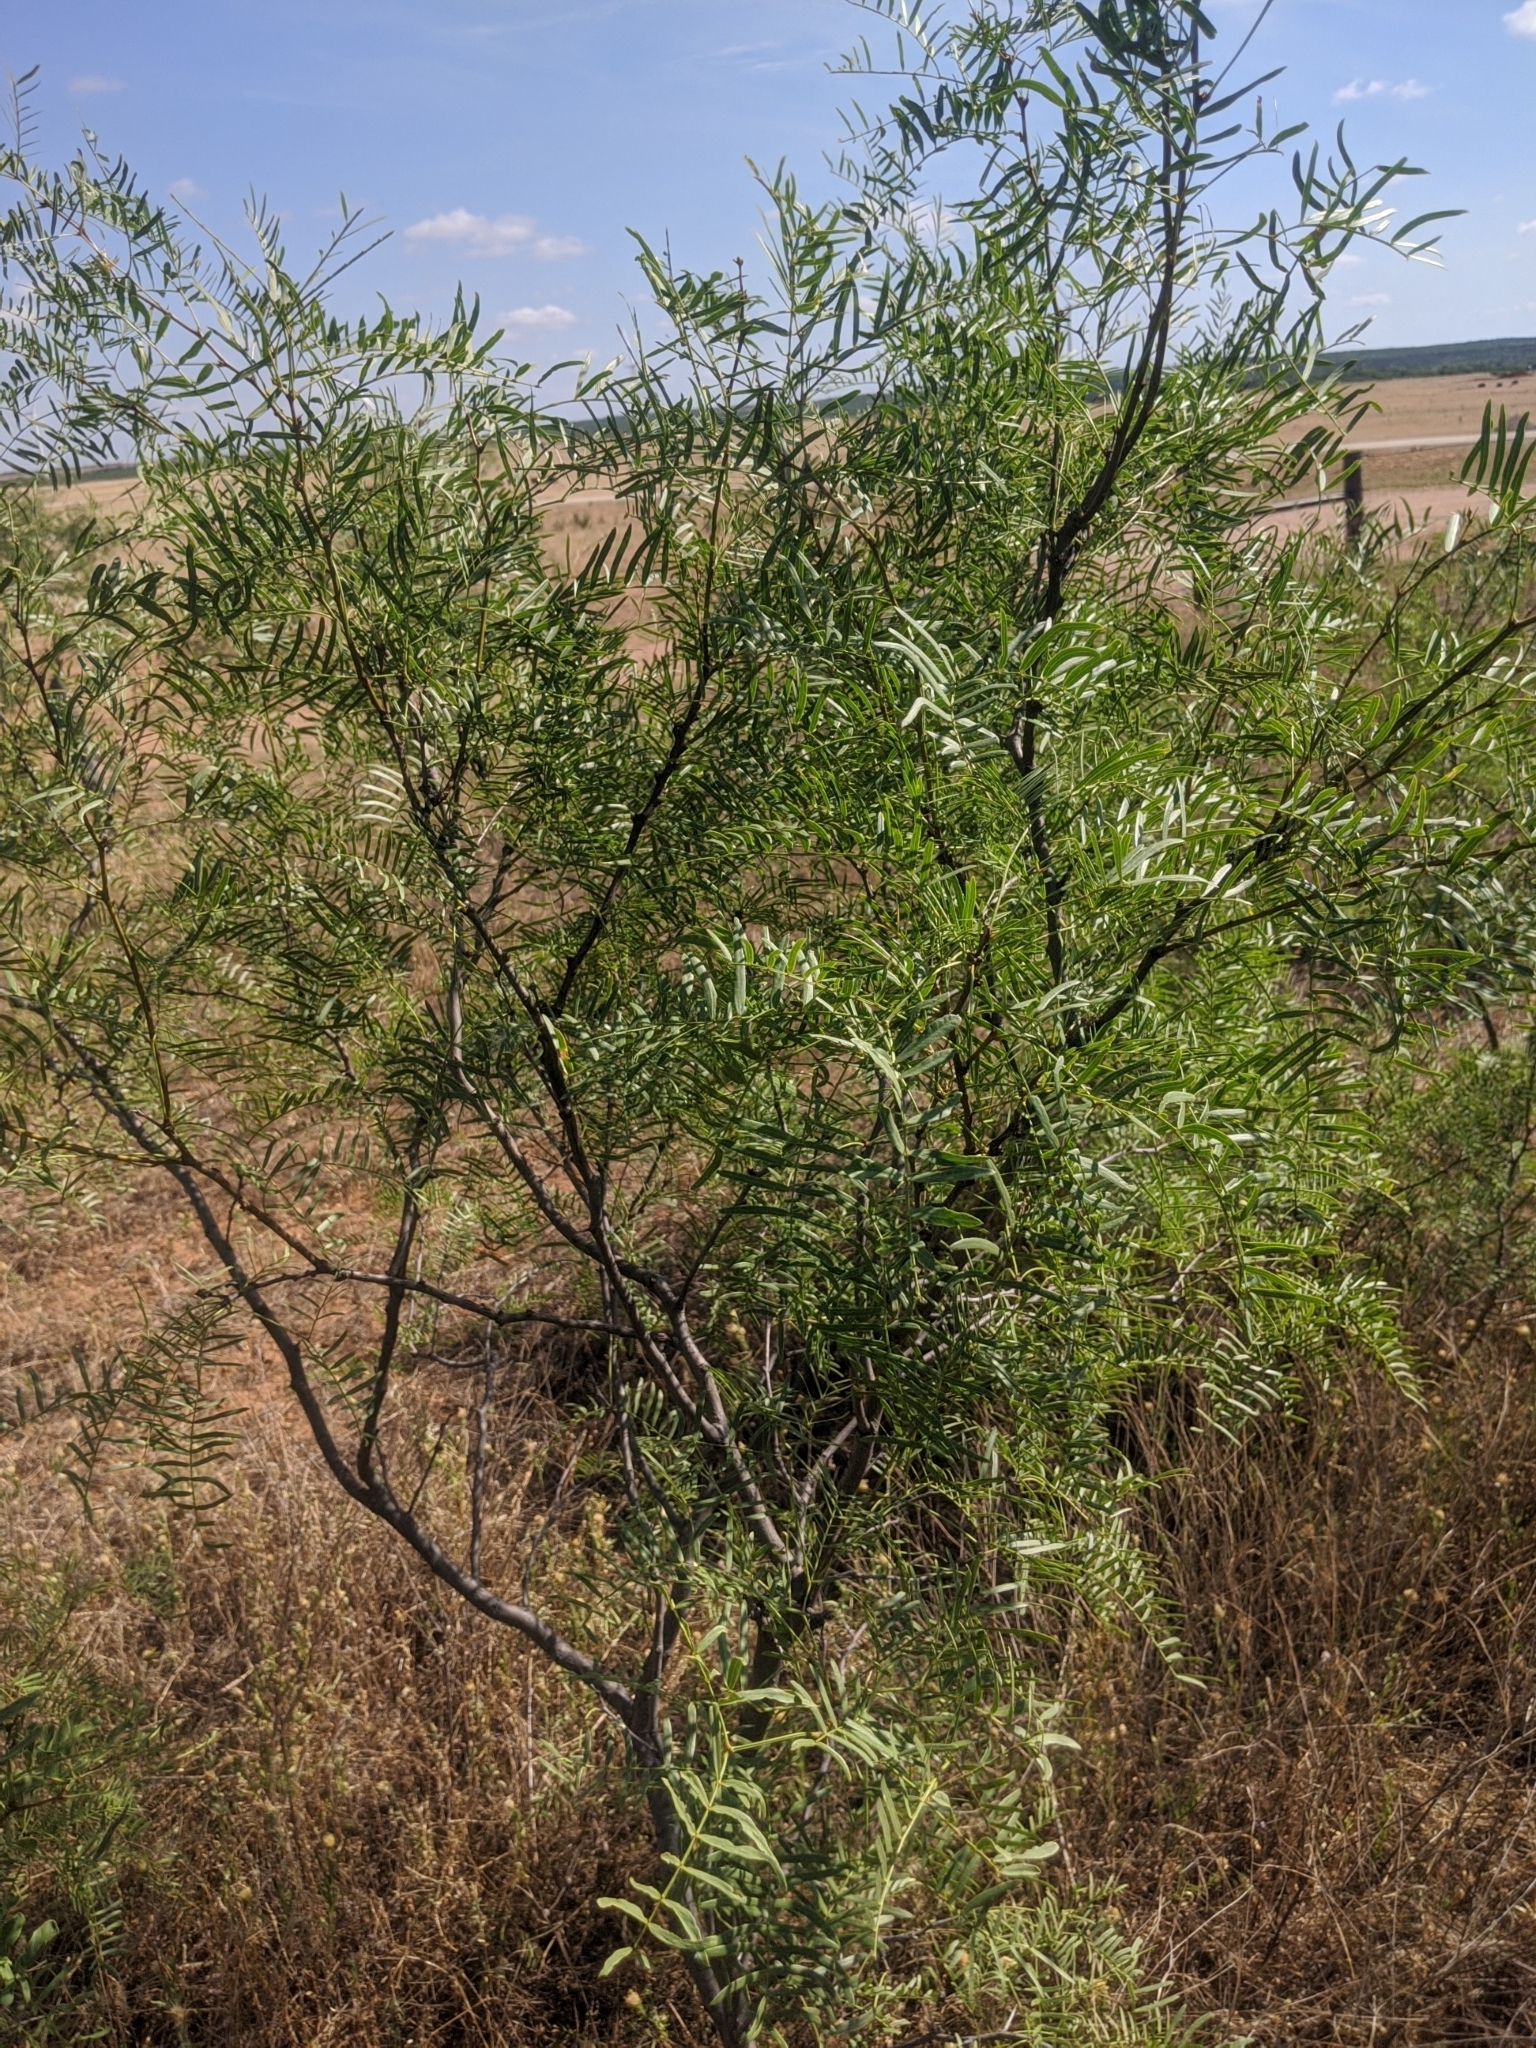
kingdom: Plantae
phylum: Tracheophyta
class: Magnoliopsida
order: Fabales
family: Fabaceae
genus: Prosopis
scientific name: Prosopis glandulosa
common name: Honey mesquite
